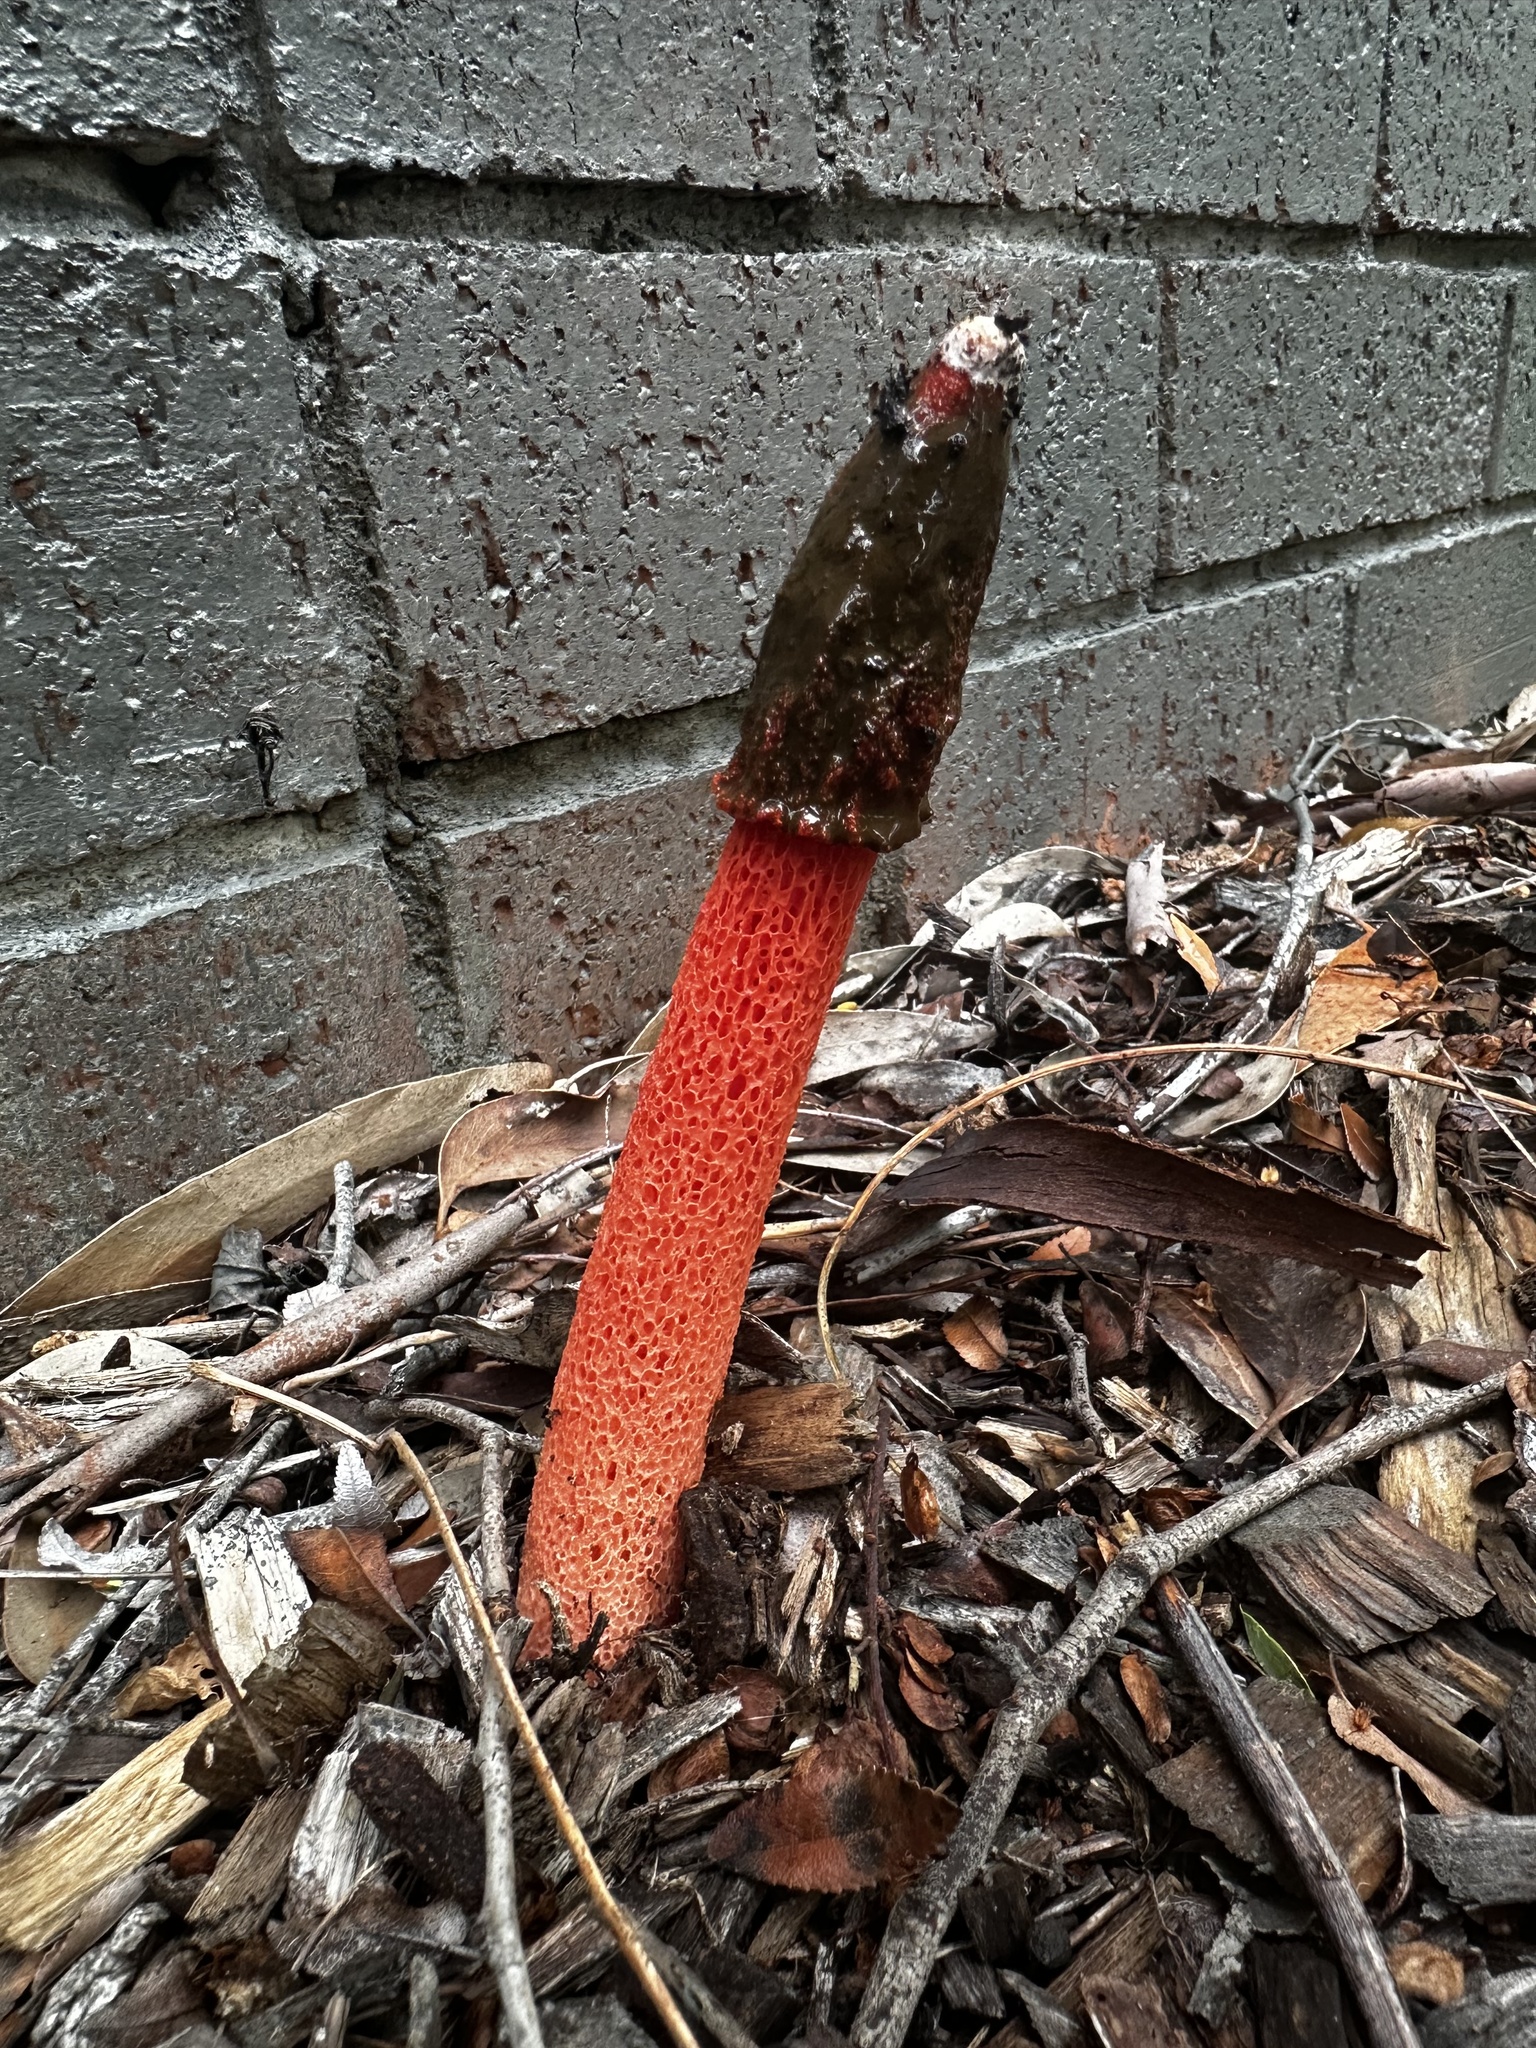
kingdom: Fungi
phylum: Basidiomycota
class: Agaricomycetes
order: Phallales
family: Phallaceae
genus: Phallus
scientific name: Phallus rubicundus
